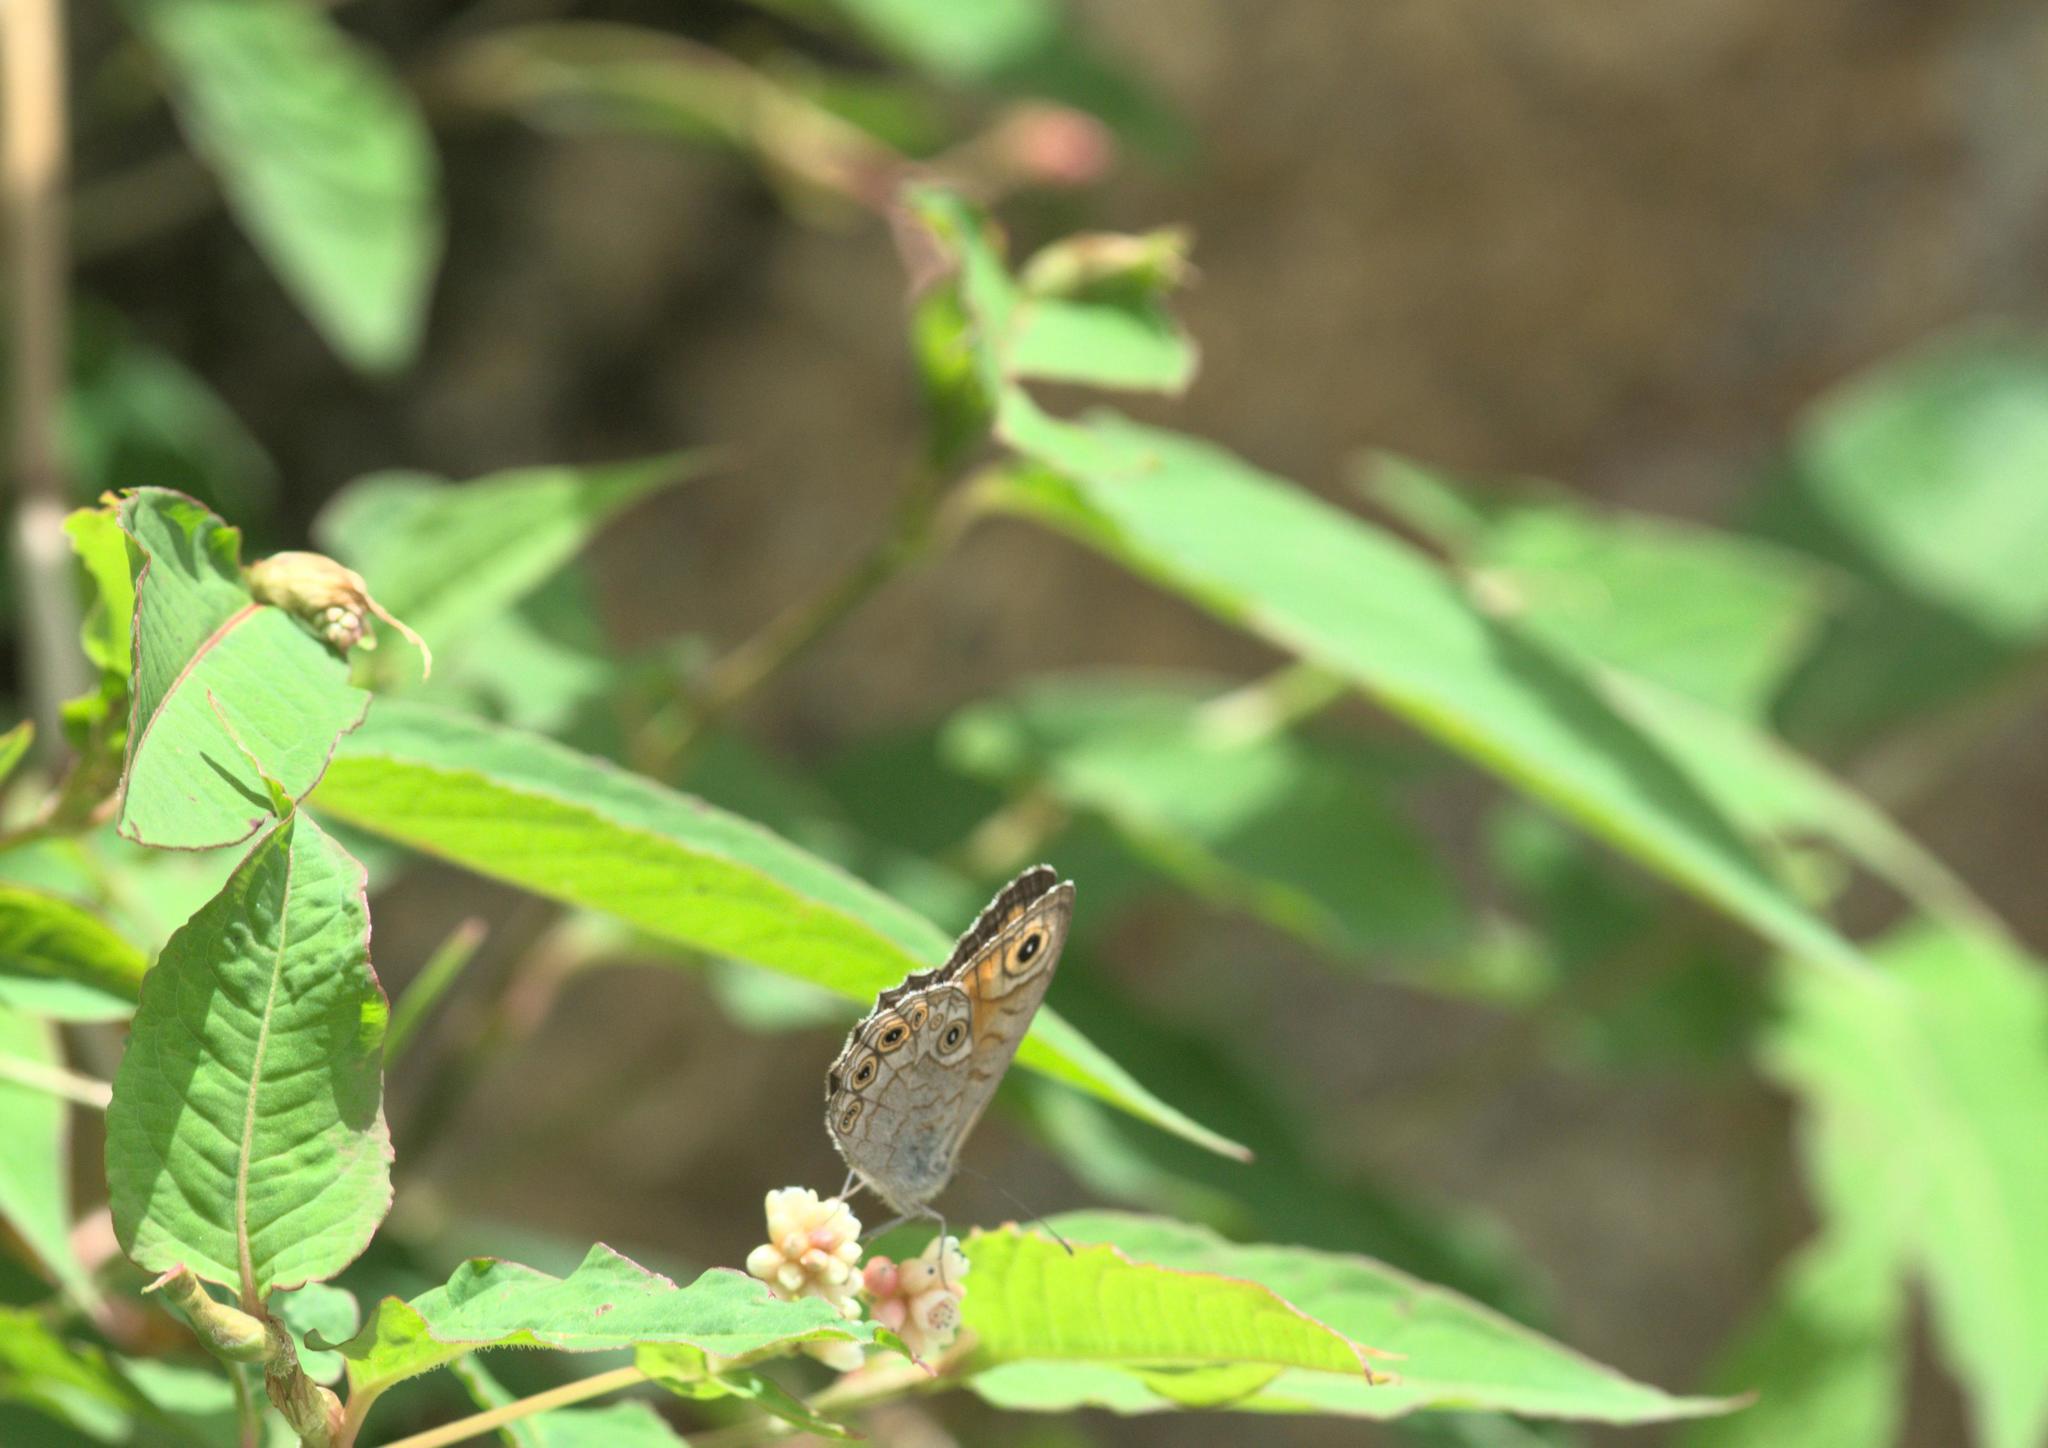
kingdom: Animalia
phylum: Arthropoda
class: Insecta
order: Lepidoptera
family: Nymphalidae
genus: Pararge
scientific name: Pararge Lasiommata schakra
